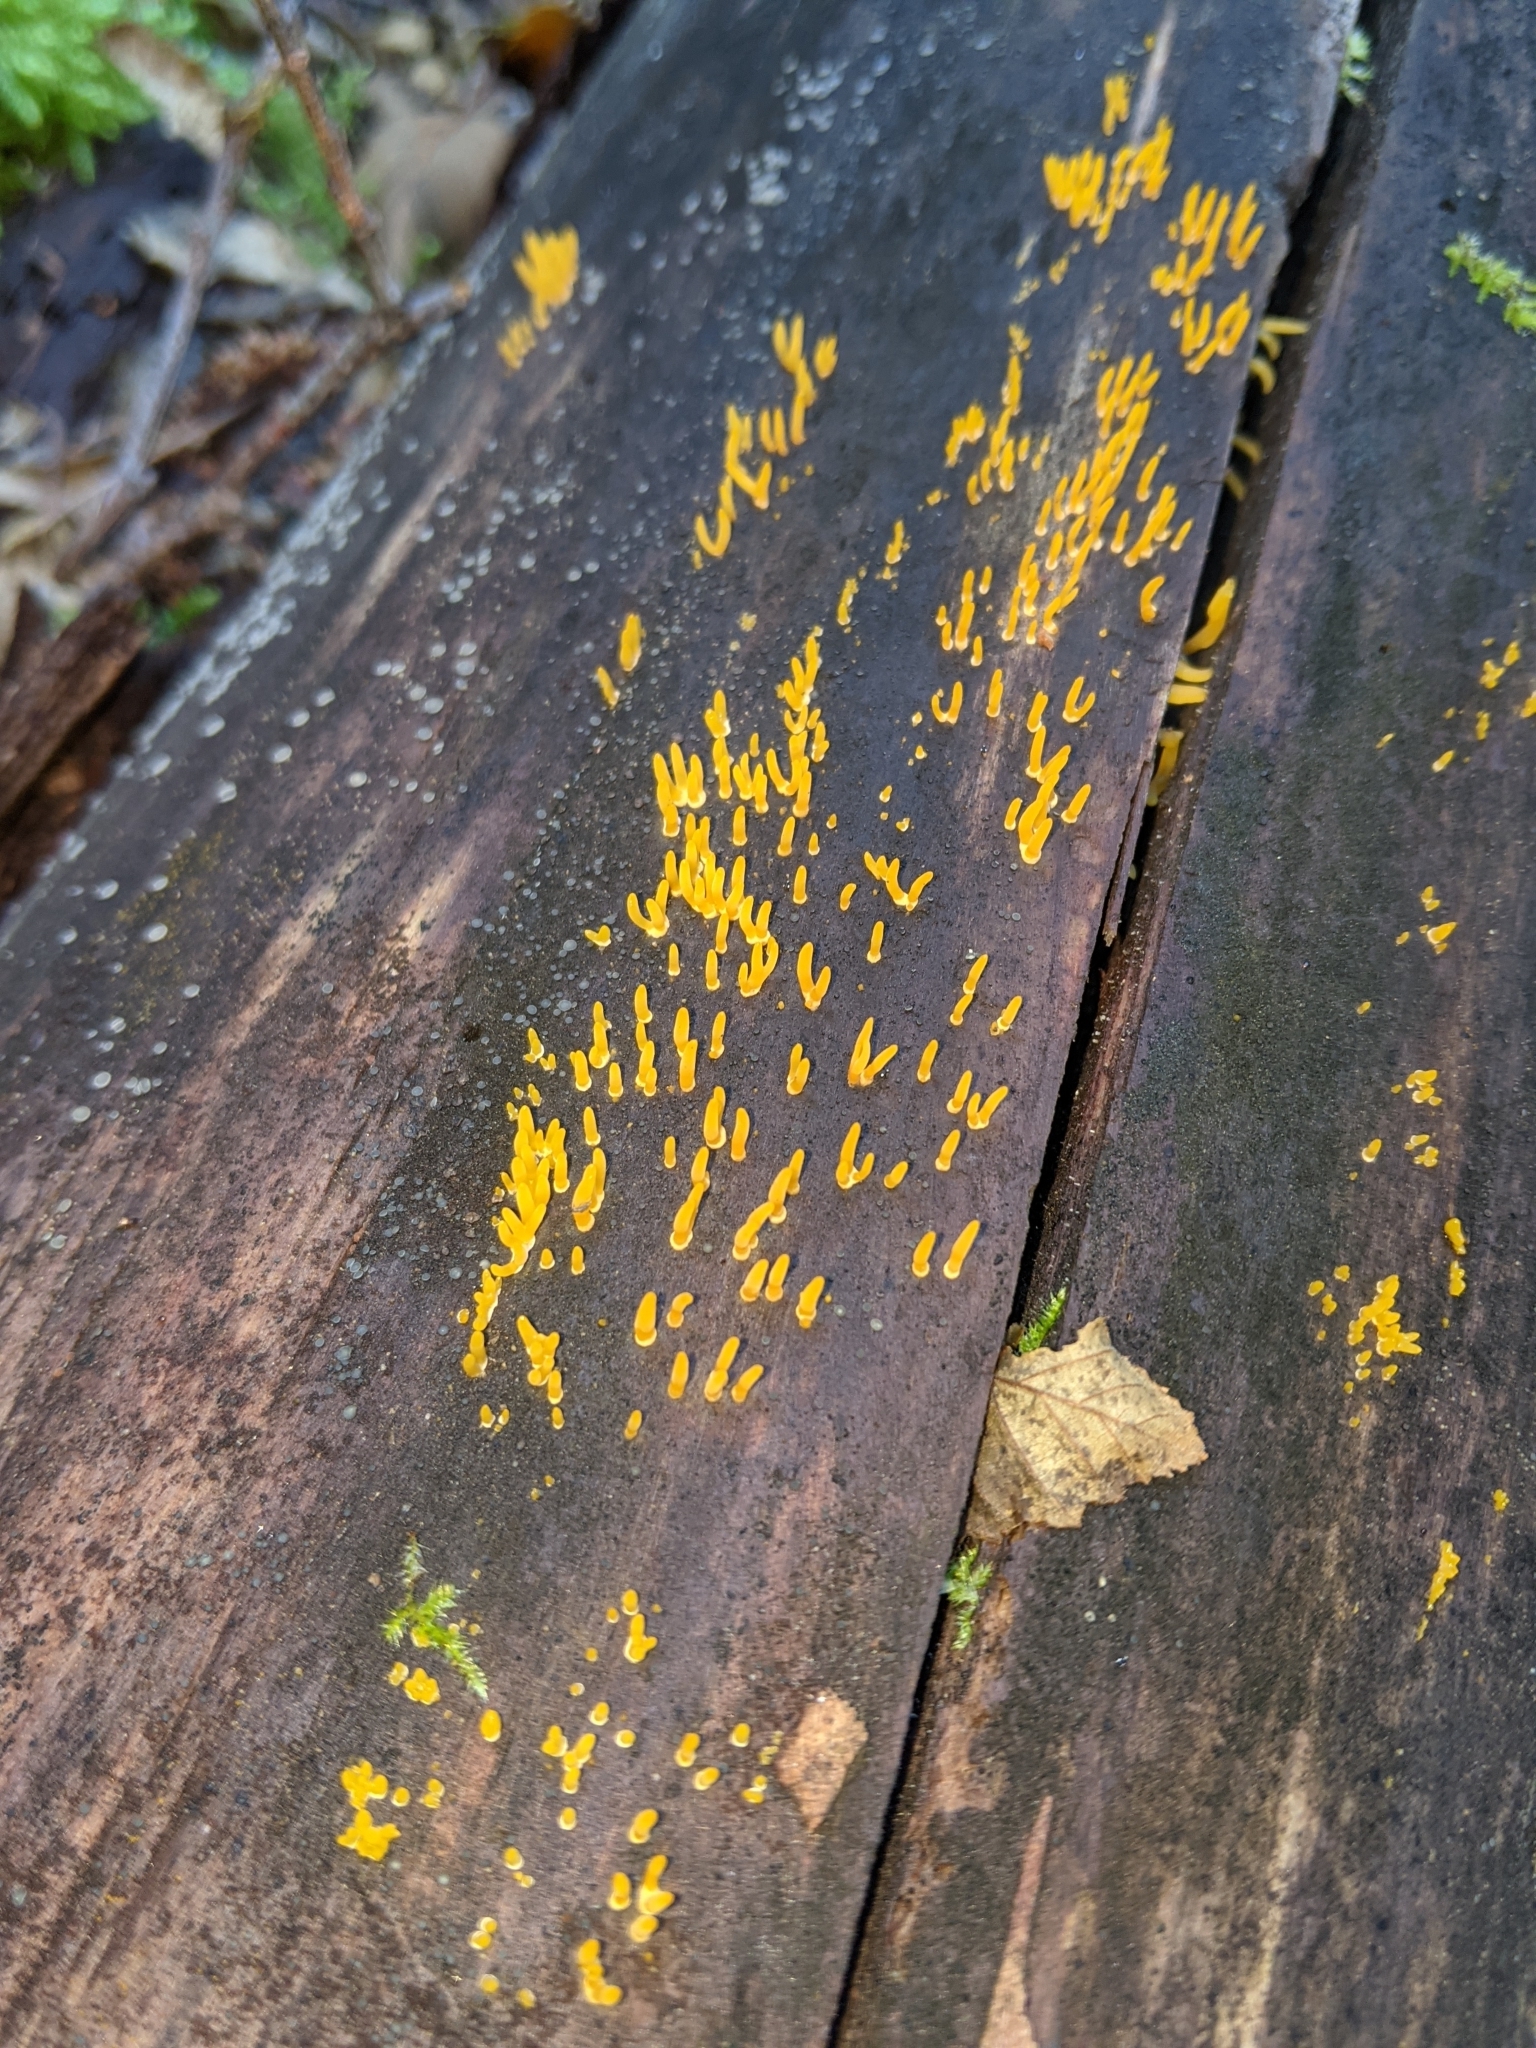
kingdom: Fungi
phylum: Basidiomycota
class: Dacrymycetes
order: Dacrymycetales
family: Dacrymycetaceae
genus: Calocera
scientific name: Calocera cornea
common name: Small stagshorn
